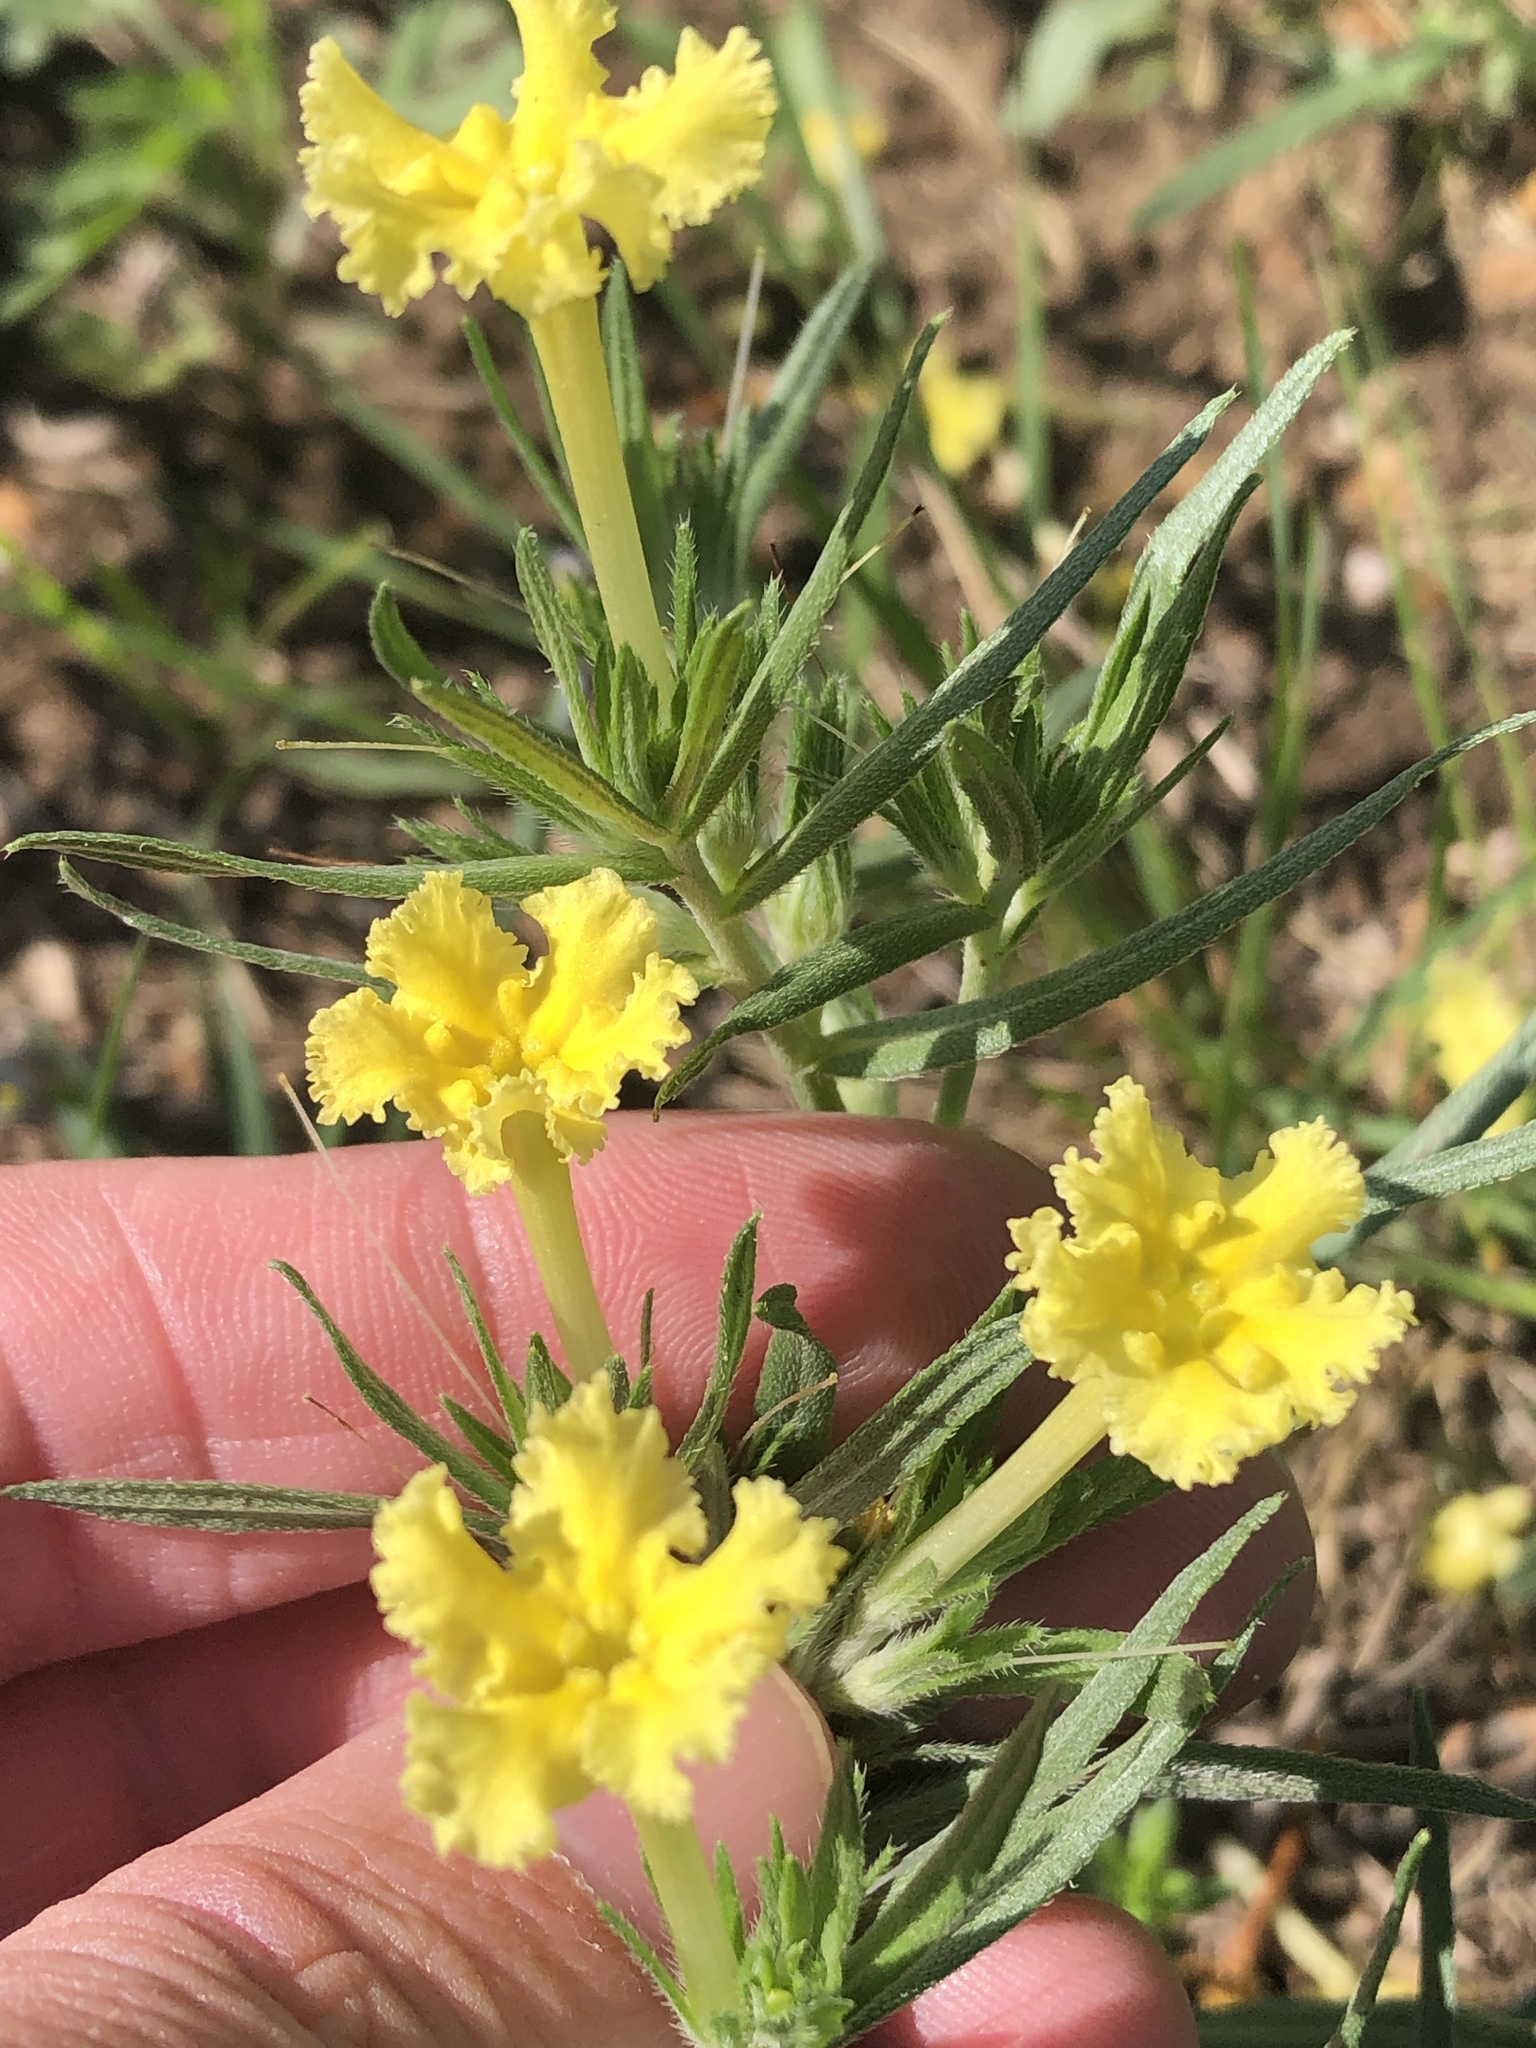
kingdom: Plantae
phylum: Tracheophyta
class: Magnoliopsida
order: Boraginales
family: Boraginaceae
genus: Lithospermum
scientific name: Lithospermum incisum
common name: Fringed gromwell
